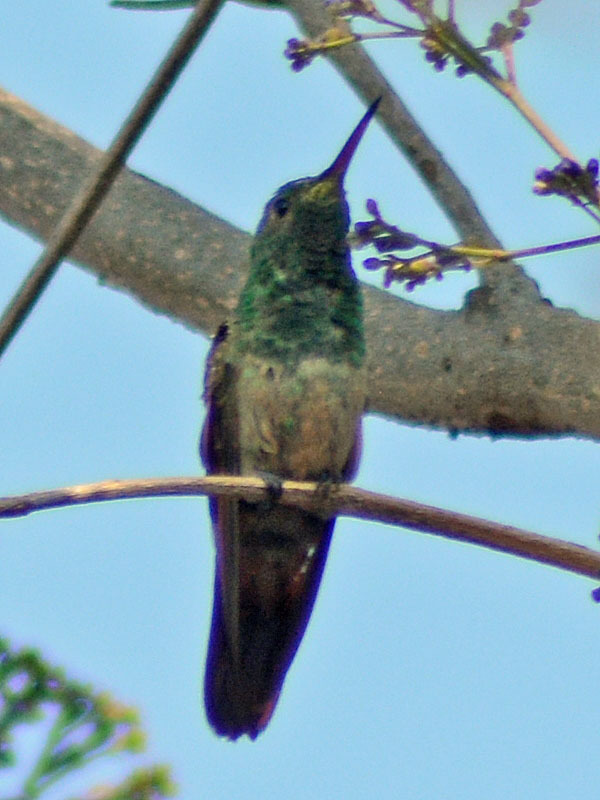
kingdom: Animalia
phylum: Chordata
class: Aves
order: Apodiformes
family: Trochilidae
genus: Saucerottia
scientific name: Saucerottia beryllina
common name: Berylline hummingbird
